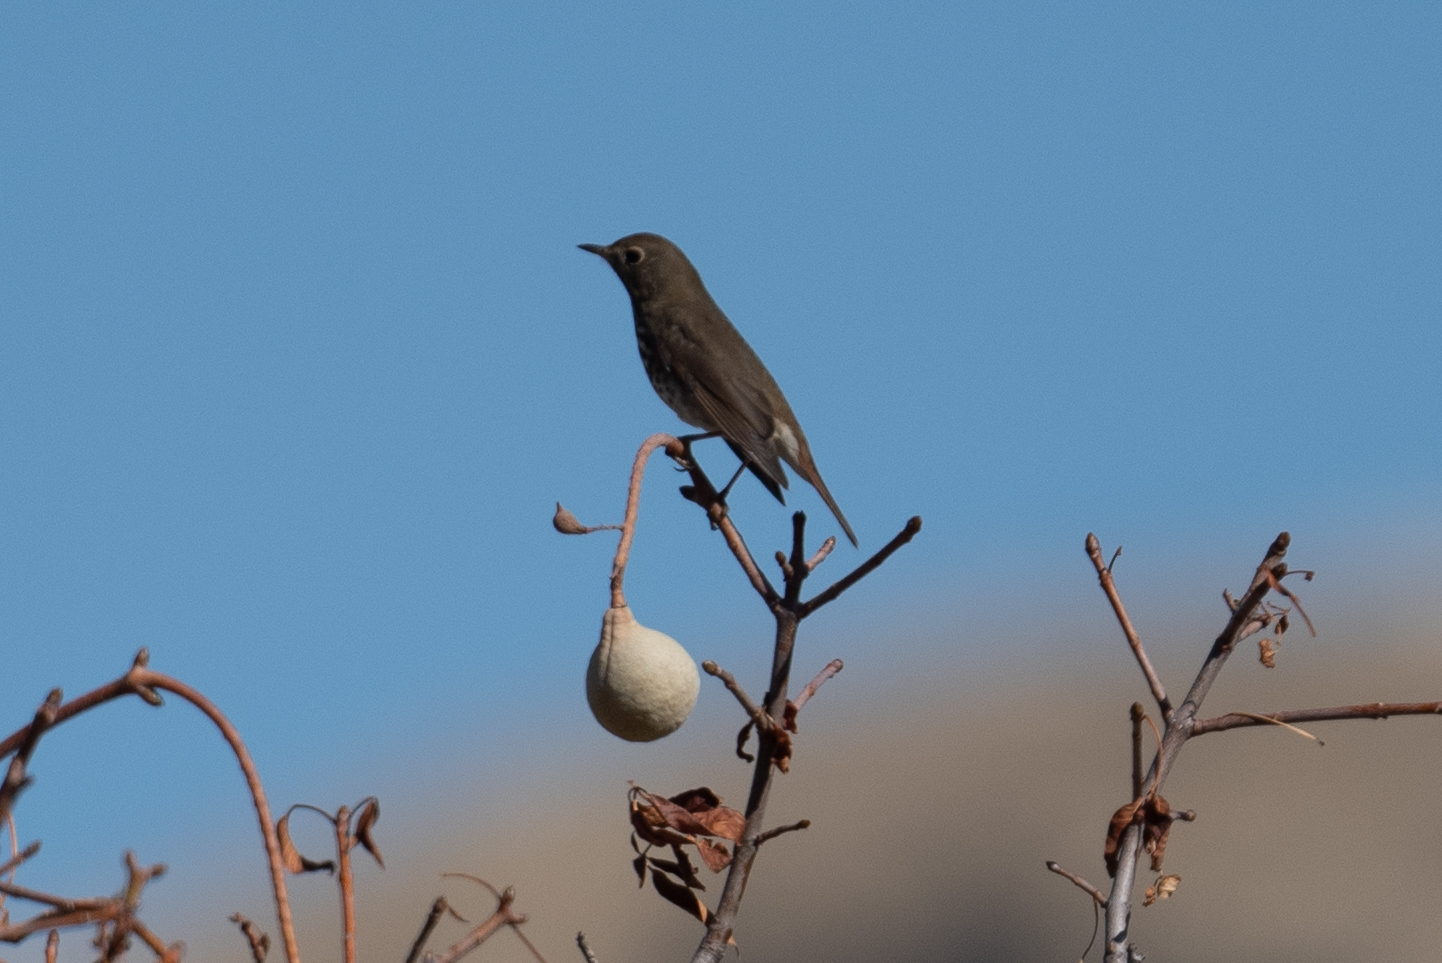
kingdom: Animalia
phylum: Chordata
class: Aves
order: Passeriformes
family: Turdidae
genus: Catharus
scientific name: Catharus guttatus
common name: Hermit thrush
